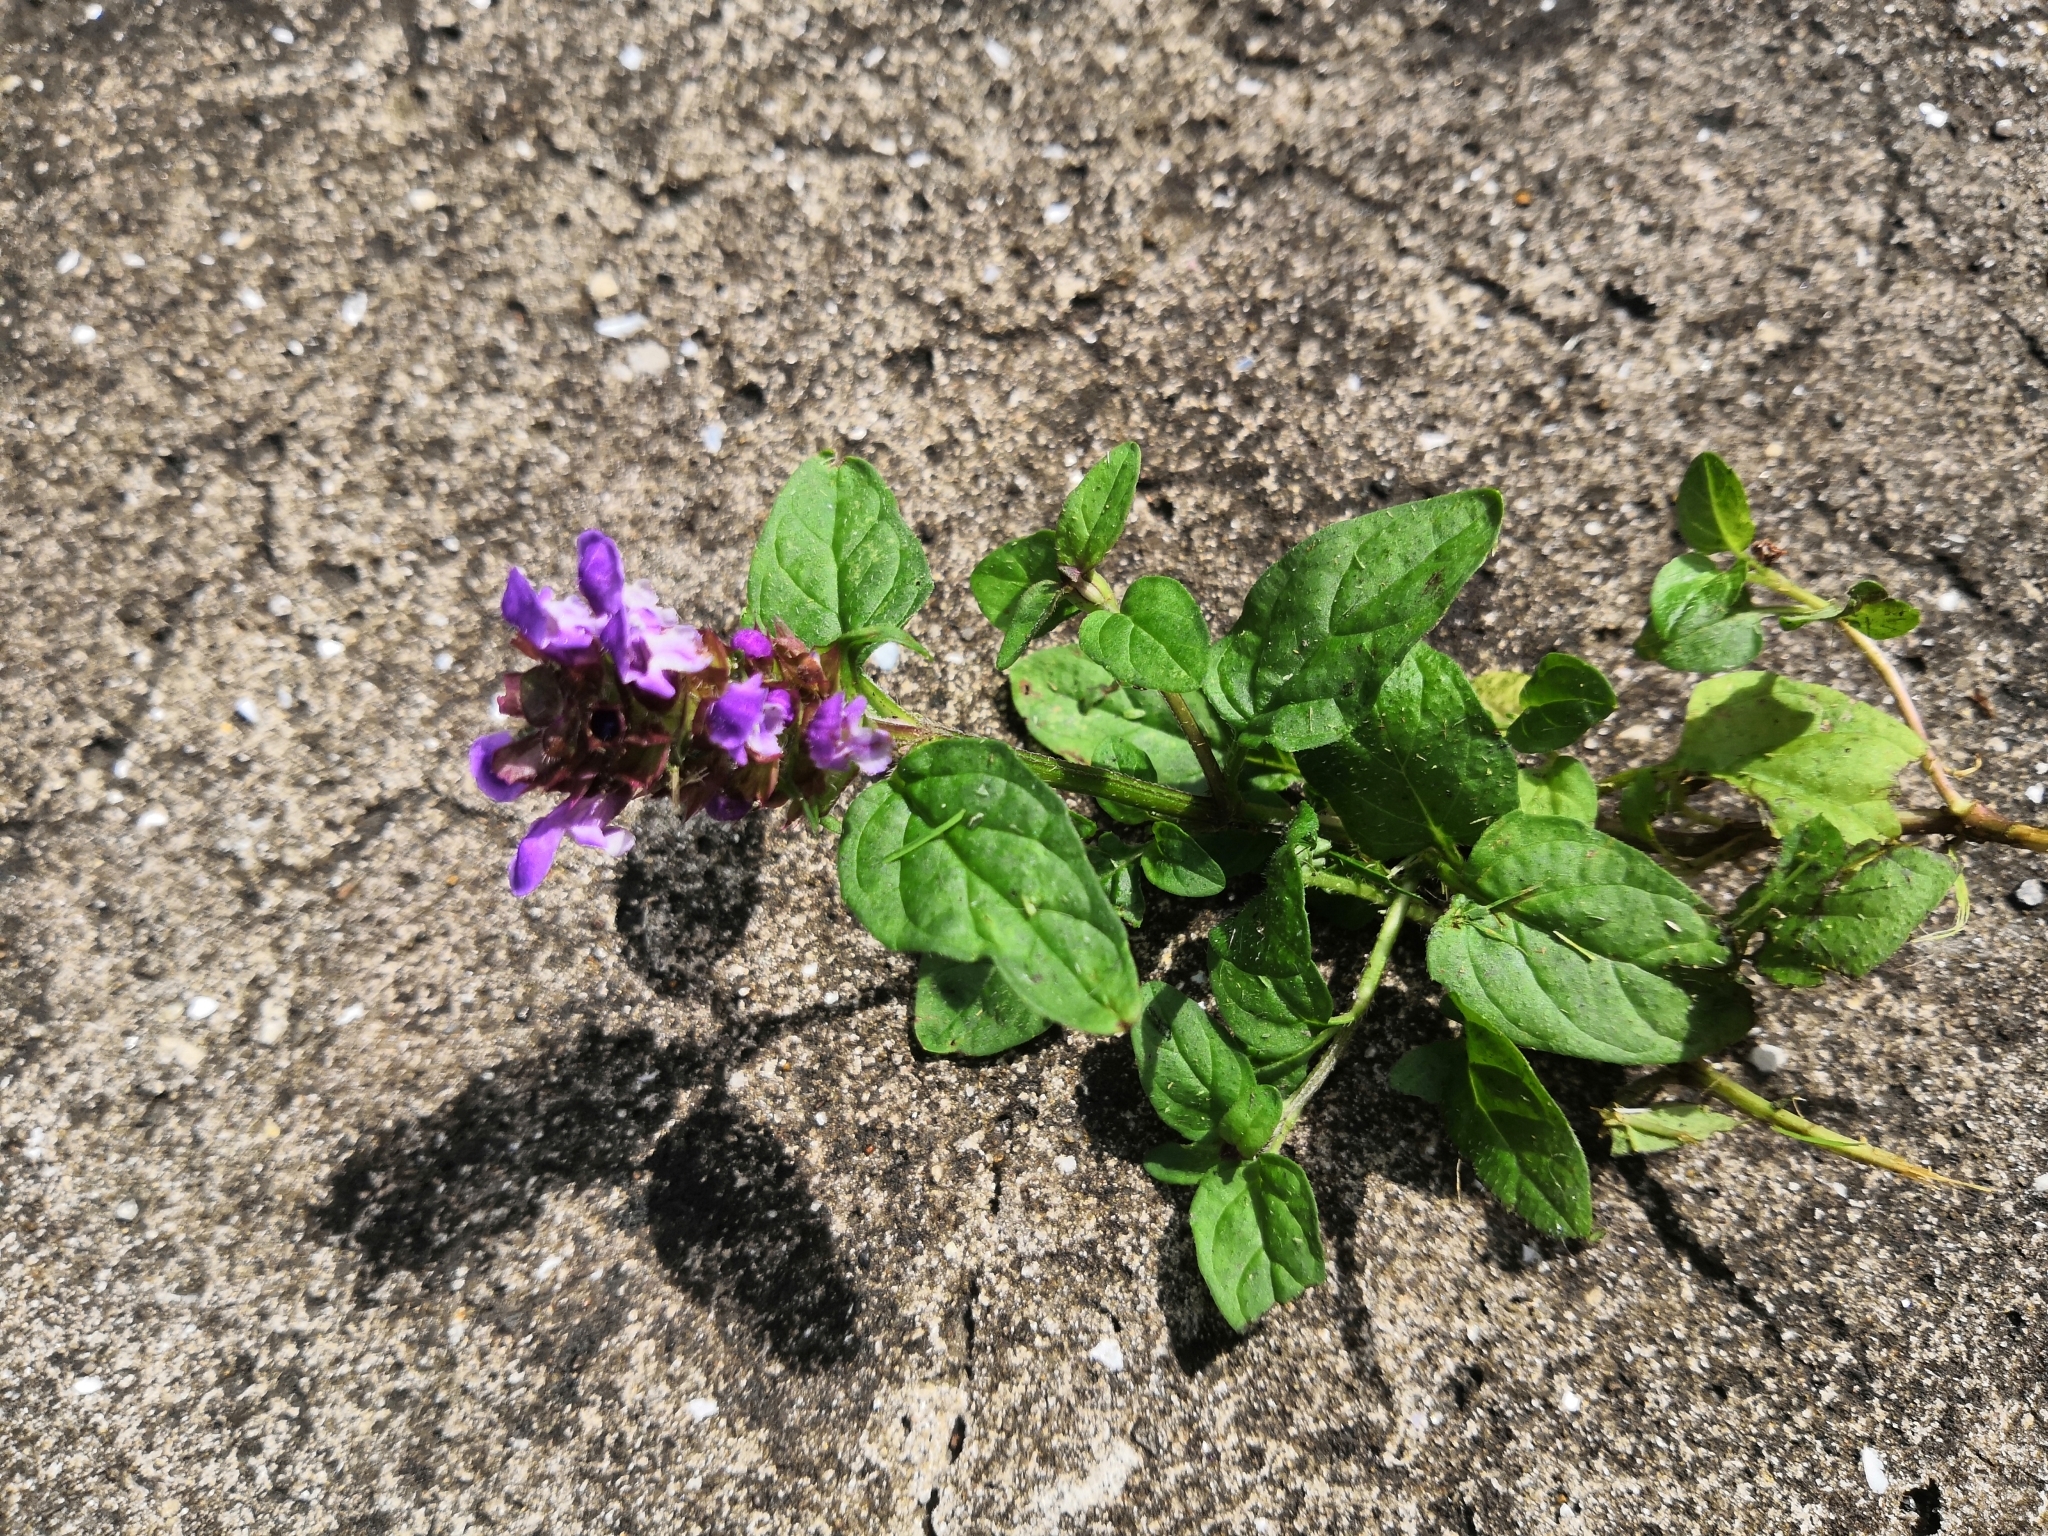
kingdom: Plantae
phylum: Tracheophyta
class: Magnoliopsida
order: Lamiales
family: Lamiaceae
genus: Prunella
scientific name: Prunella vulgaris
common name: Heal-all
